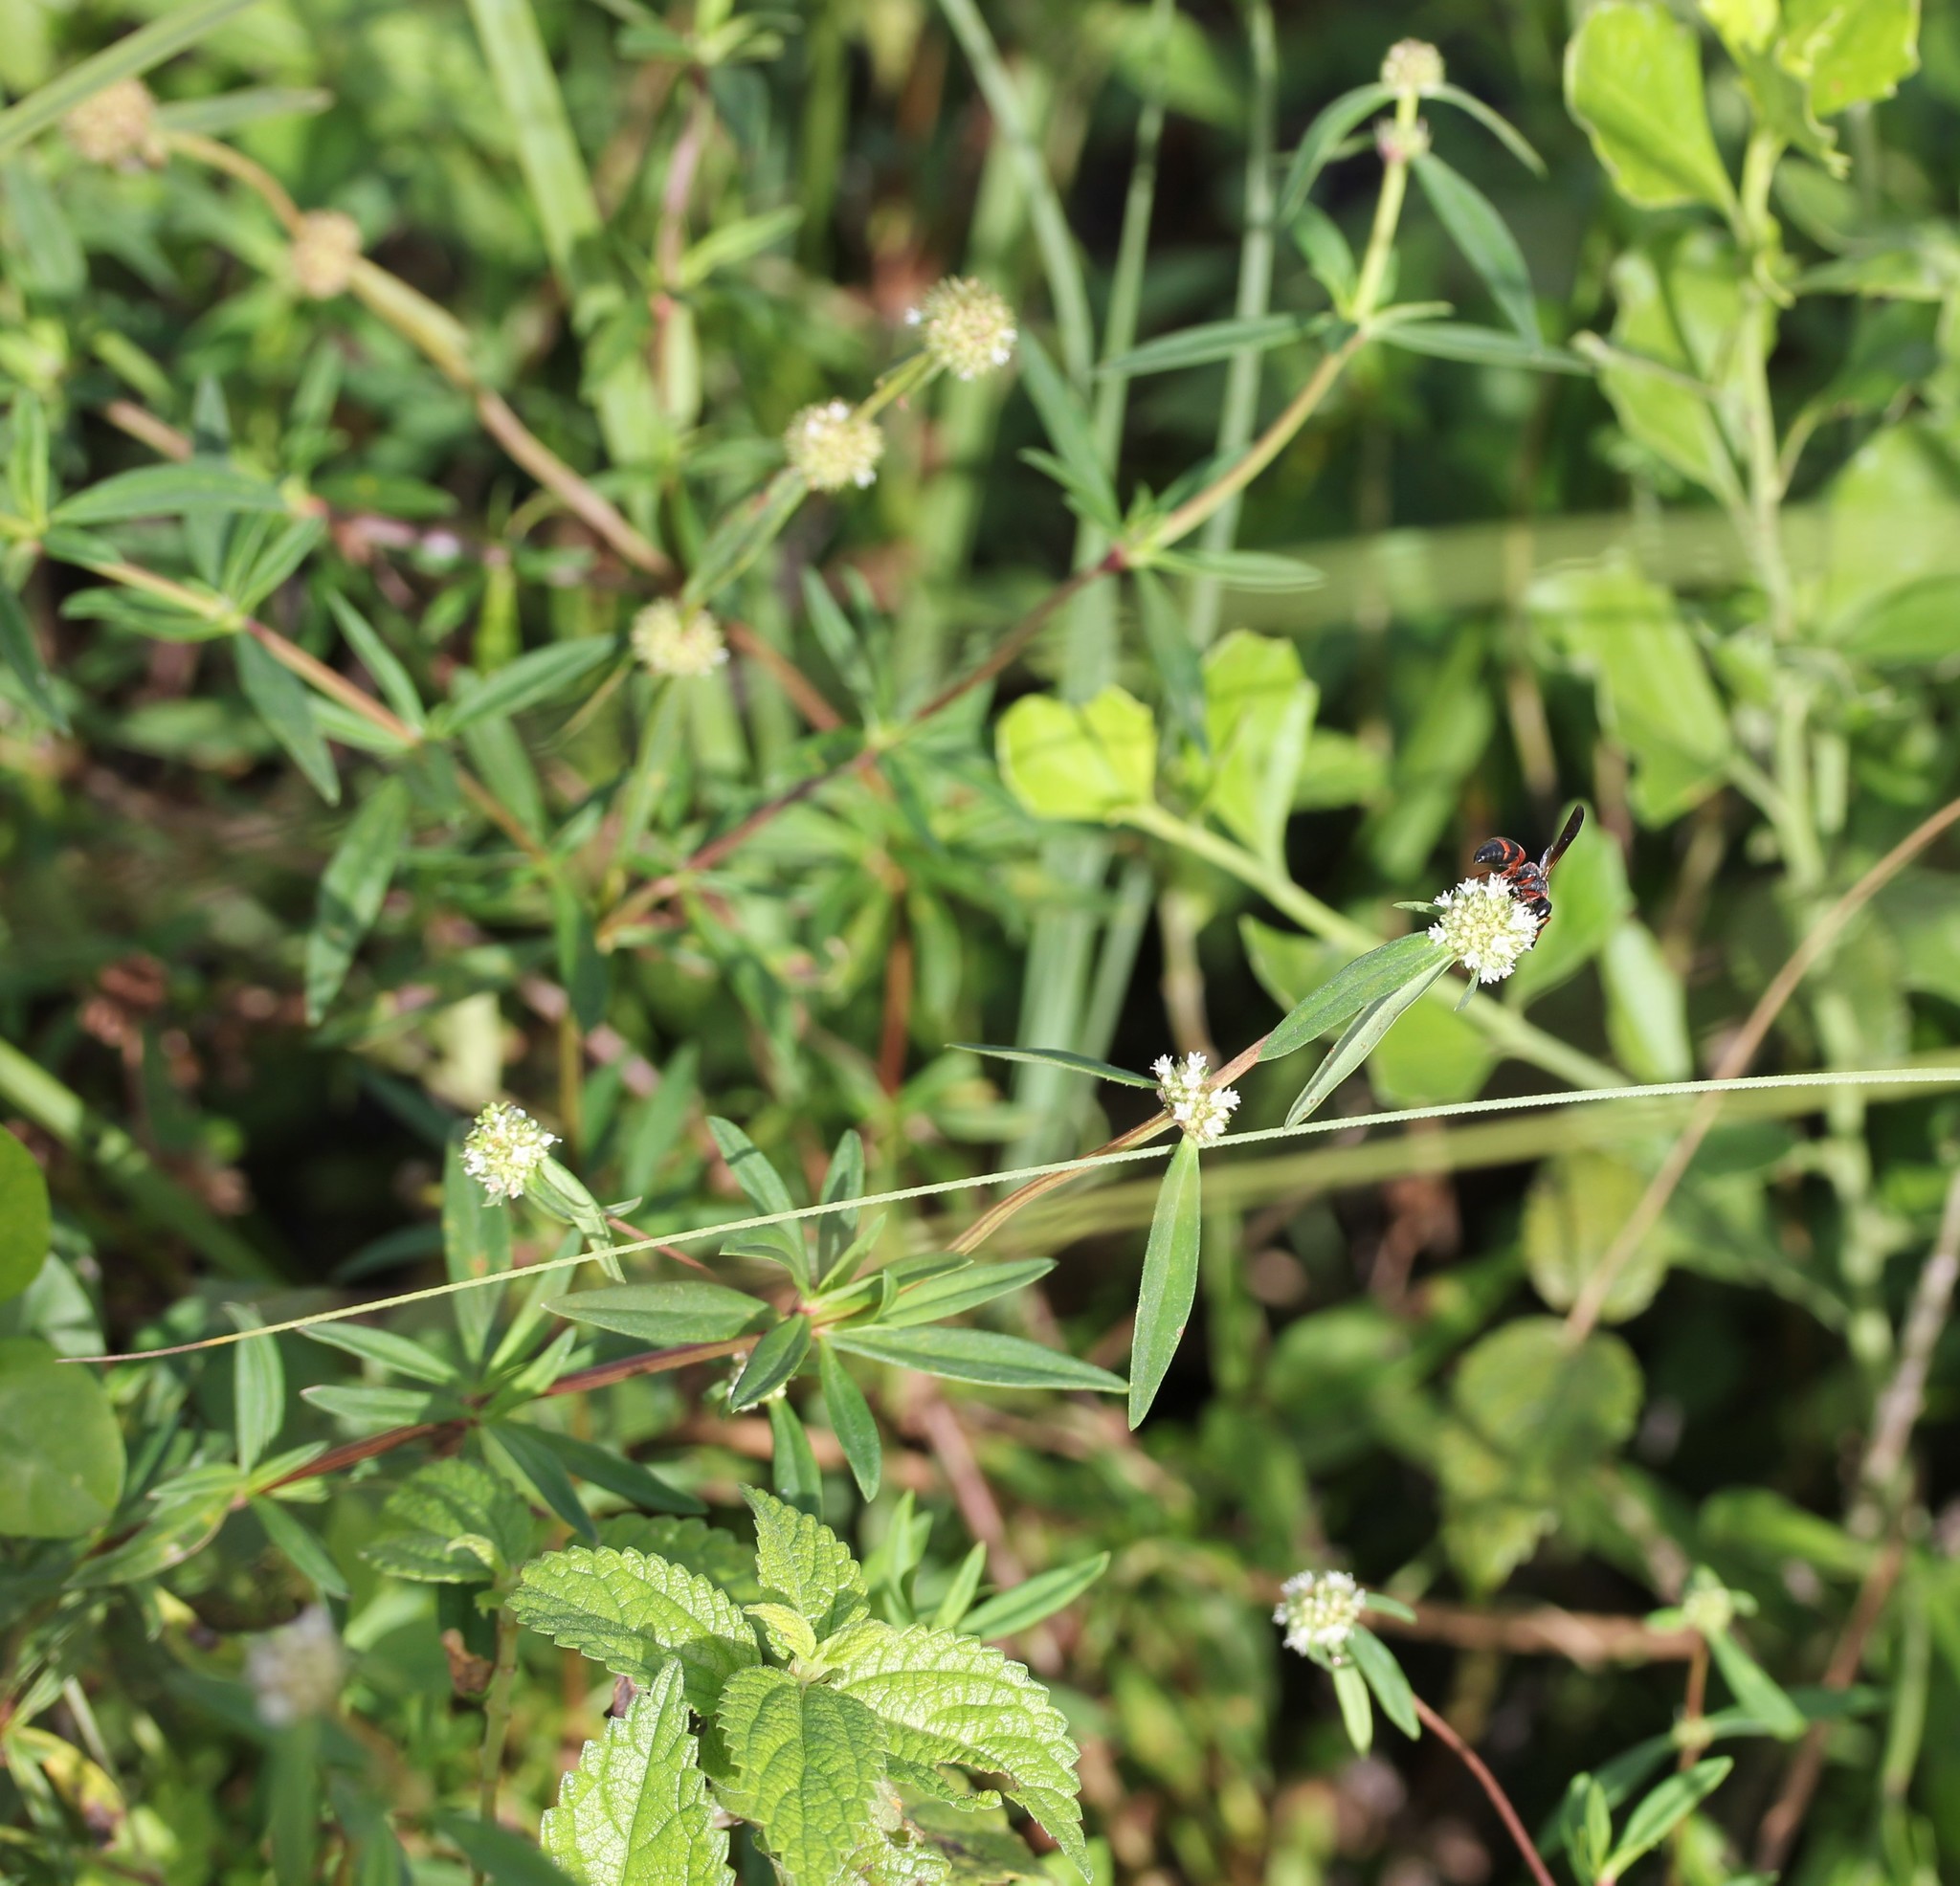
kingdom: Plantae
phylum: Tracheophyta
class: Magnoliopsida
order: Gentianales
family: Rubiaceae
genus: Spermacoce
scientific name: Spermacoce verticillata
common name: Shrubby false buttonweed
